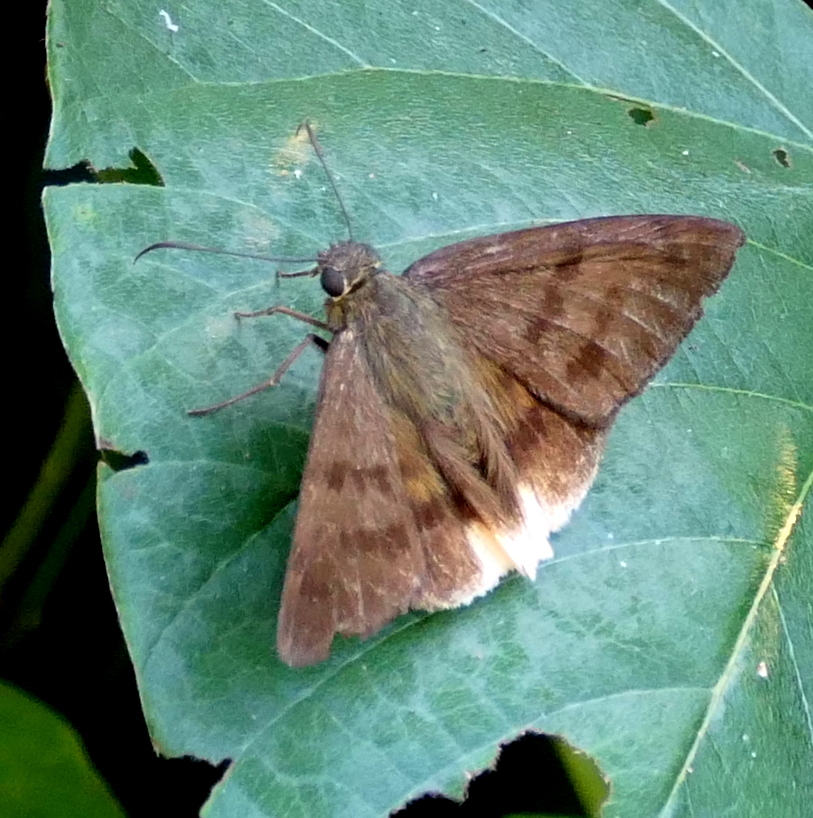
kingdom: Animalia
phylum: Arthropoda
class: Insecta
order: Lepidoptera
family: Hesperiidae
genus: Astraptes
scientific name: Astraptes anaphus
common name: Yellow-tipped flasher
